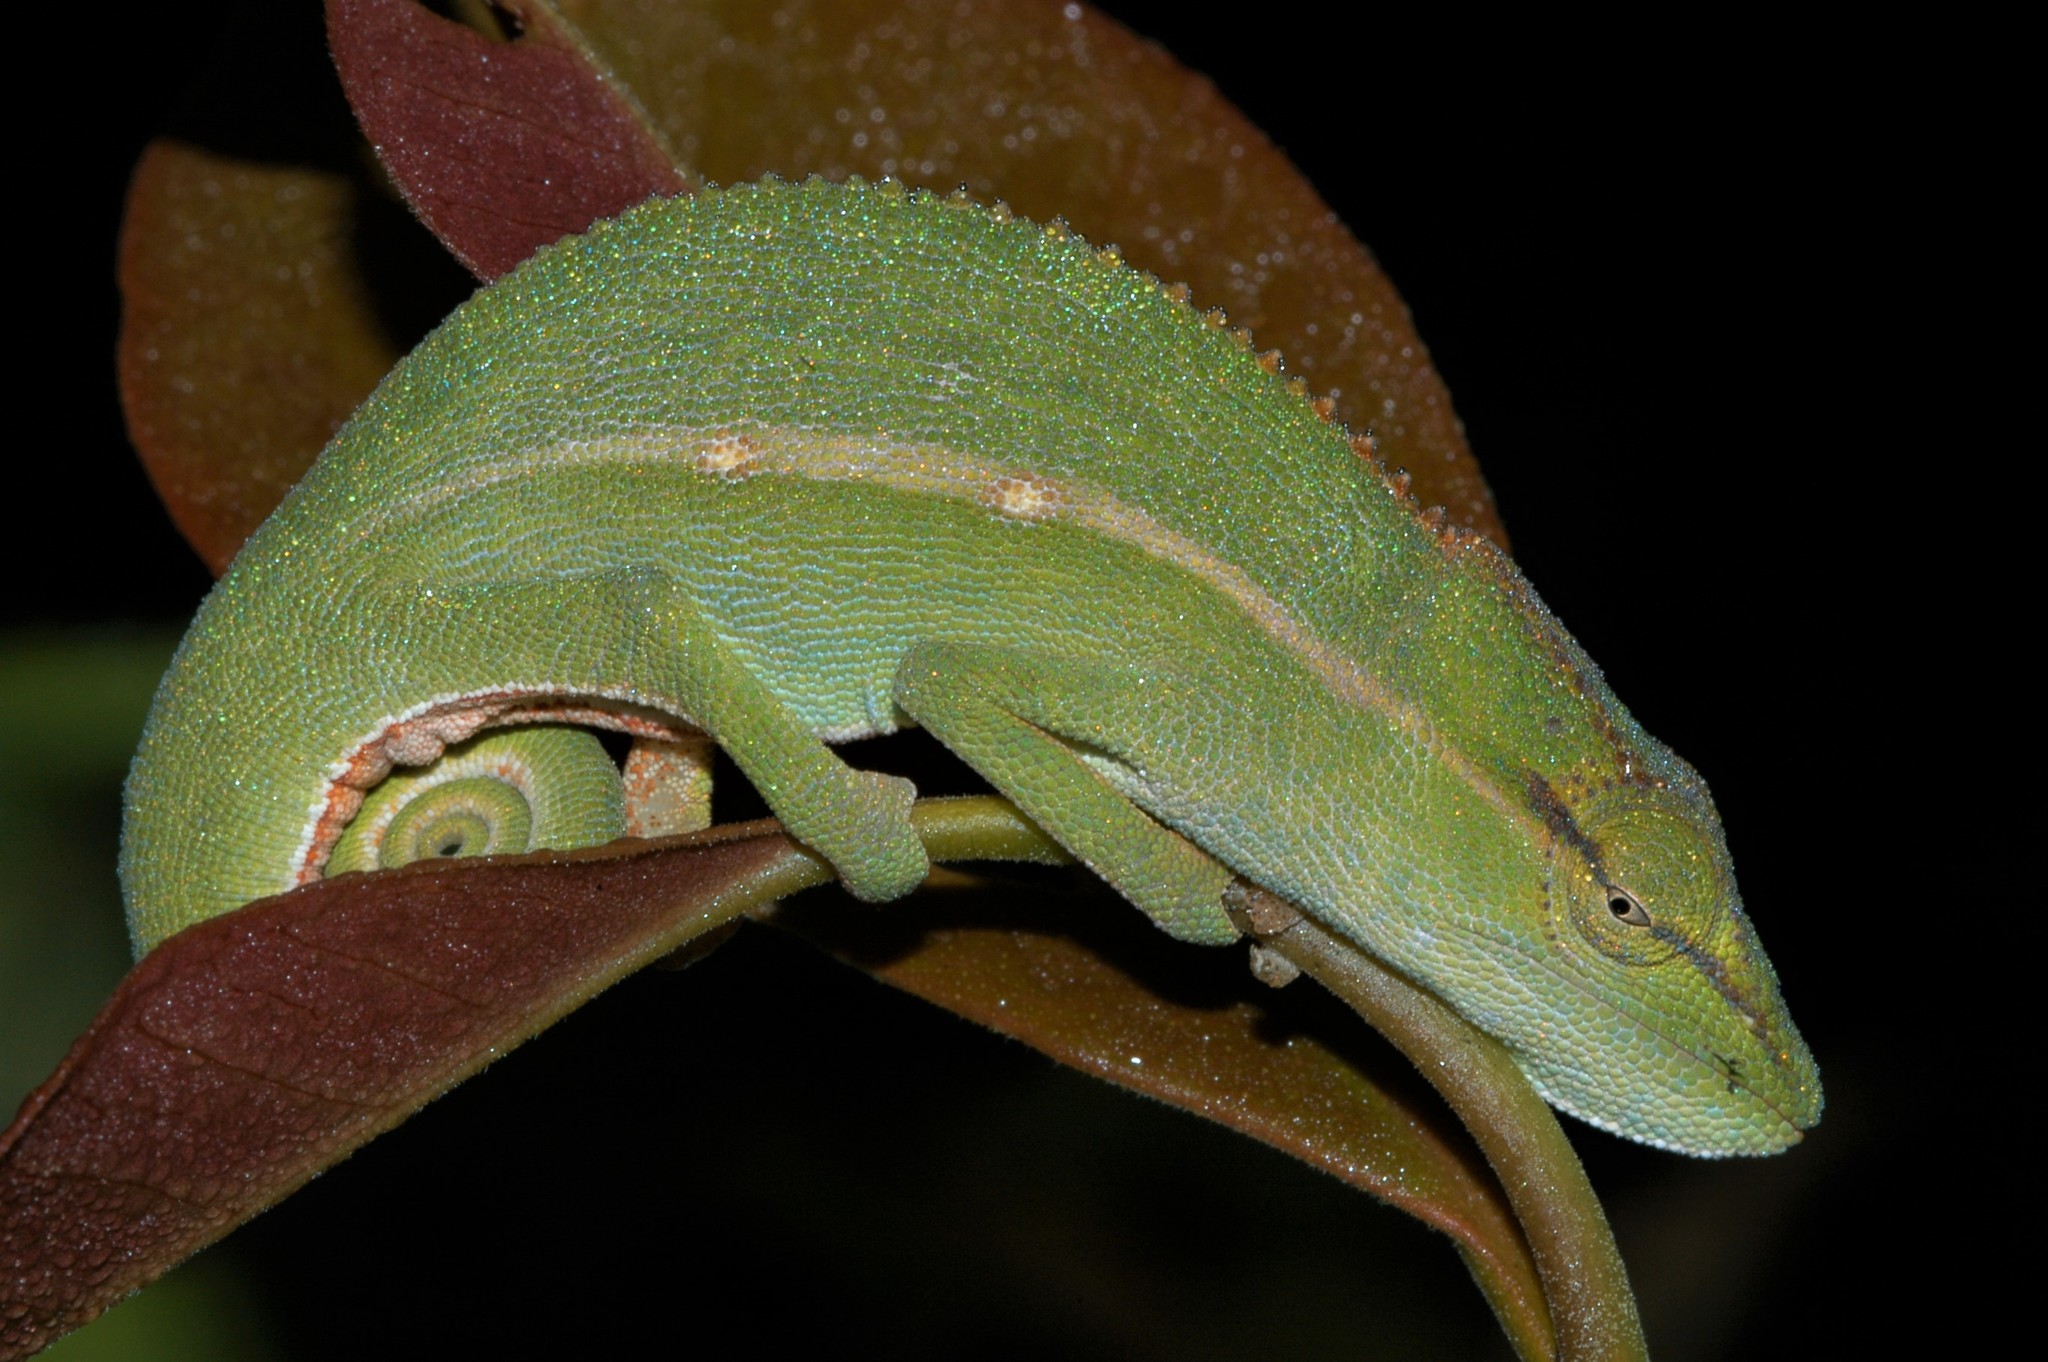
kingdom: Animalia
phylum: Chordata
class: Squamata
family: Chamaeleonidae
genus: Calumma
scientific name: Calumma gastrotaenia
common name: Short-nosed chameleon
